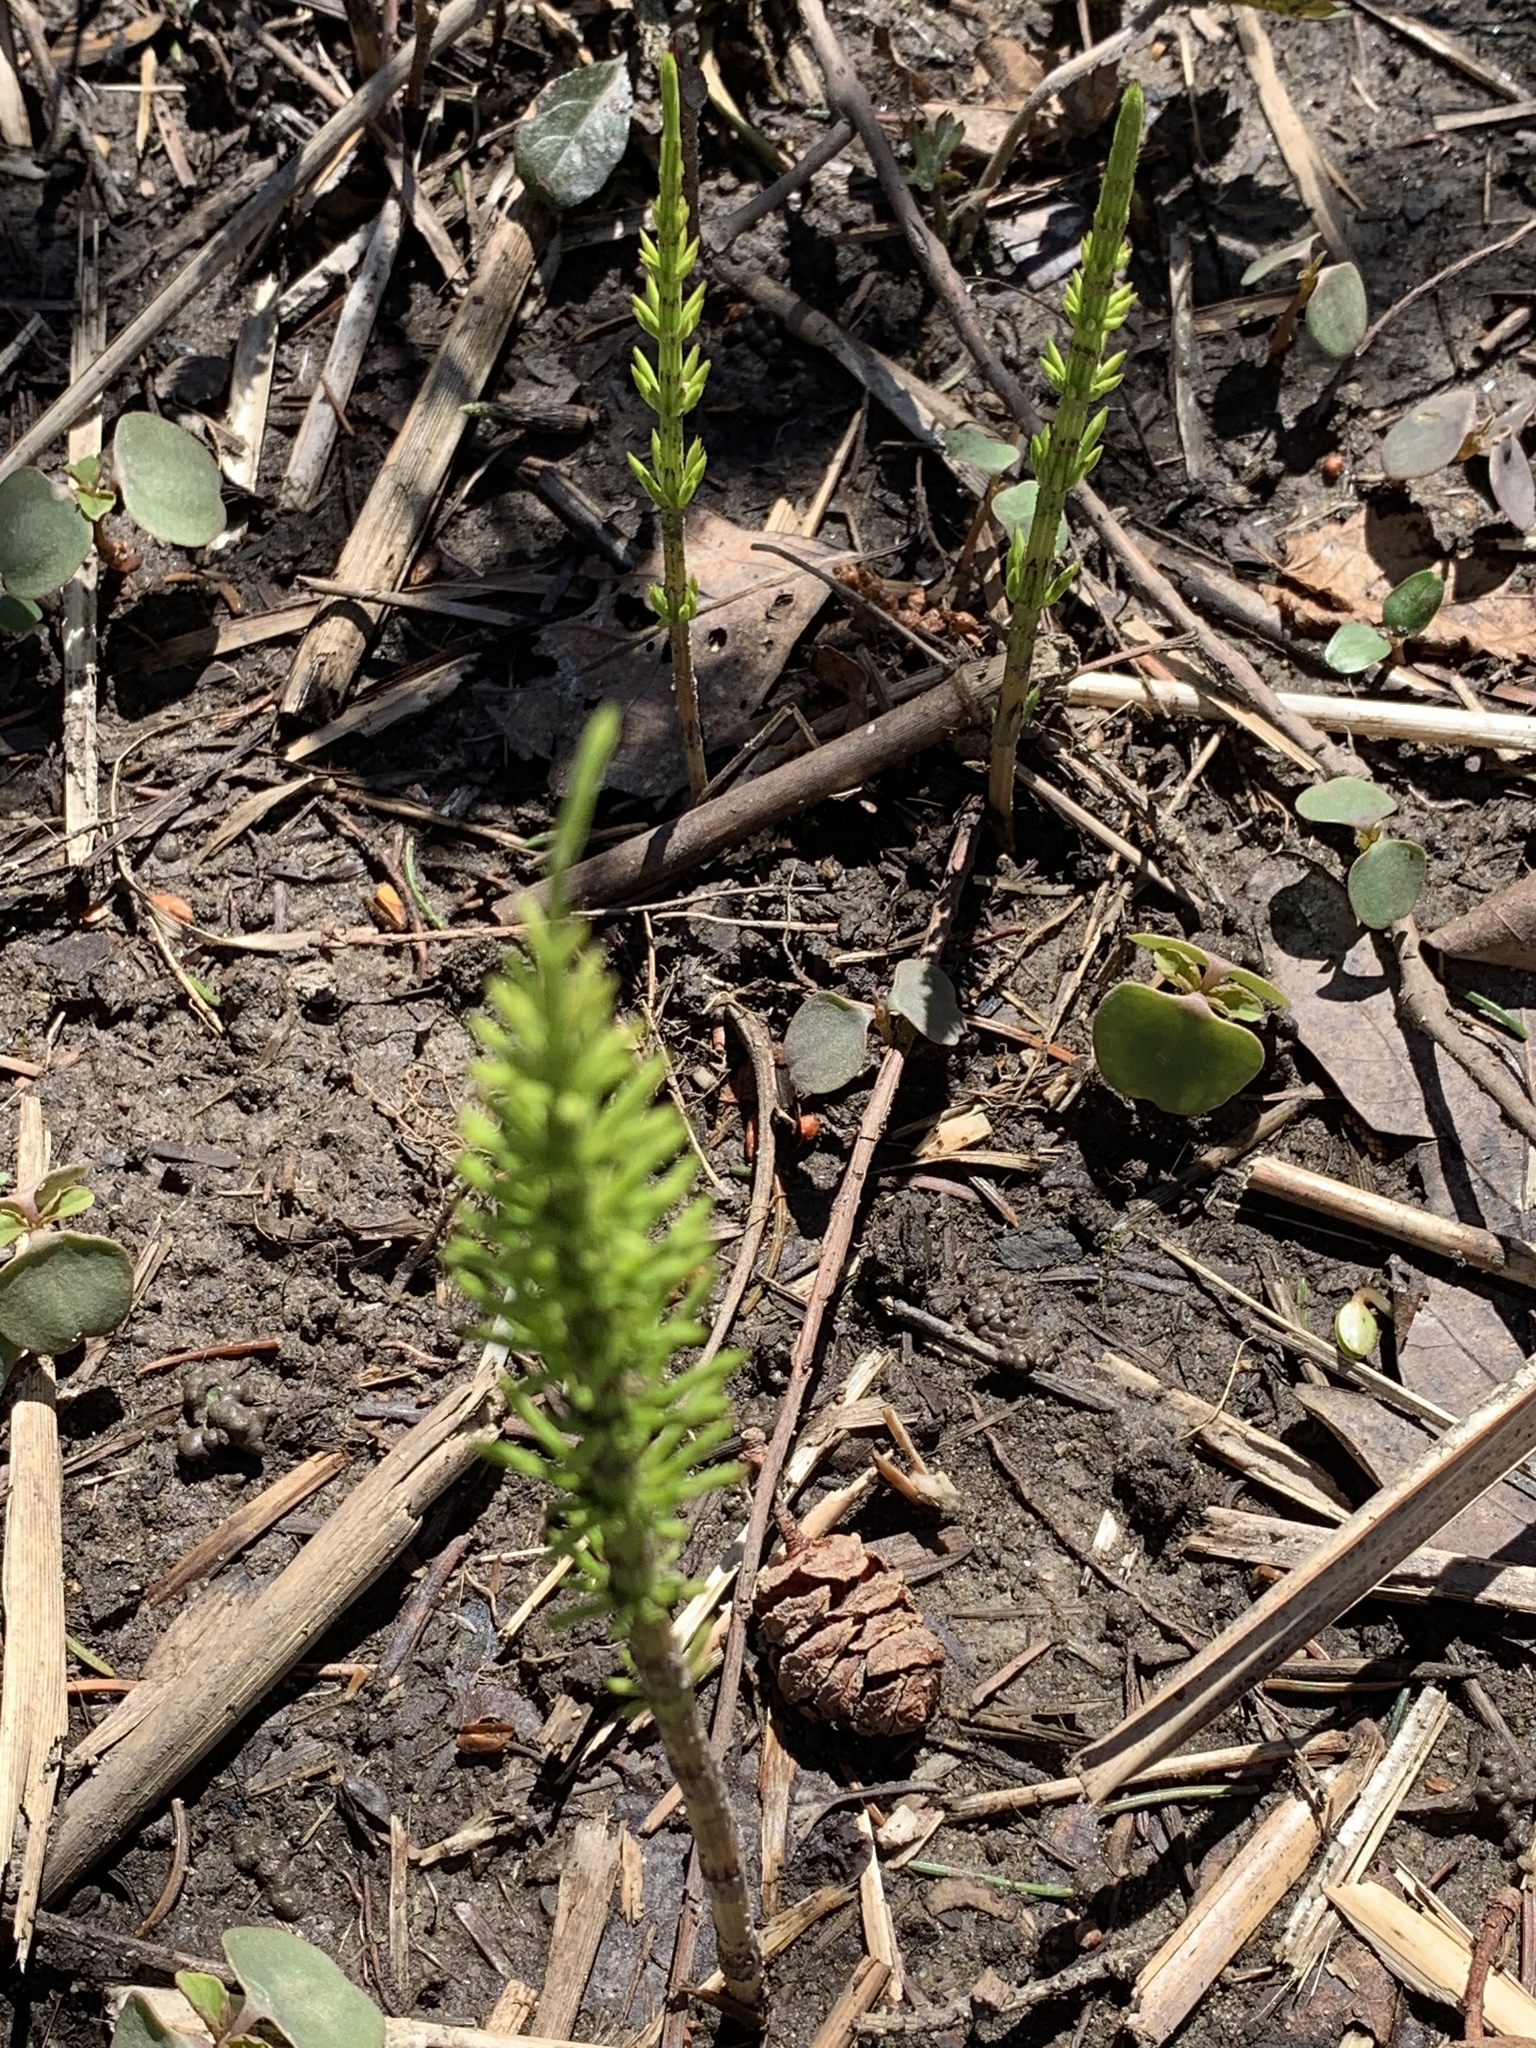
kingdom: Plantae
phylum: Tracheophyta
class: Polypodiopsida
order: Equisetales
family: Equisetaceae
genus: Equisetum
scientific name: Equisetum arvense
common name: Field horsetail
